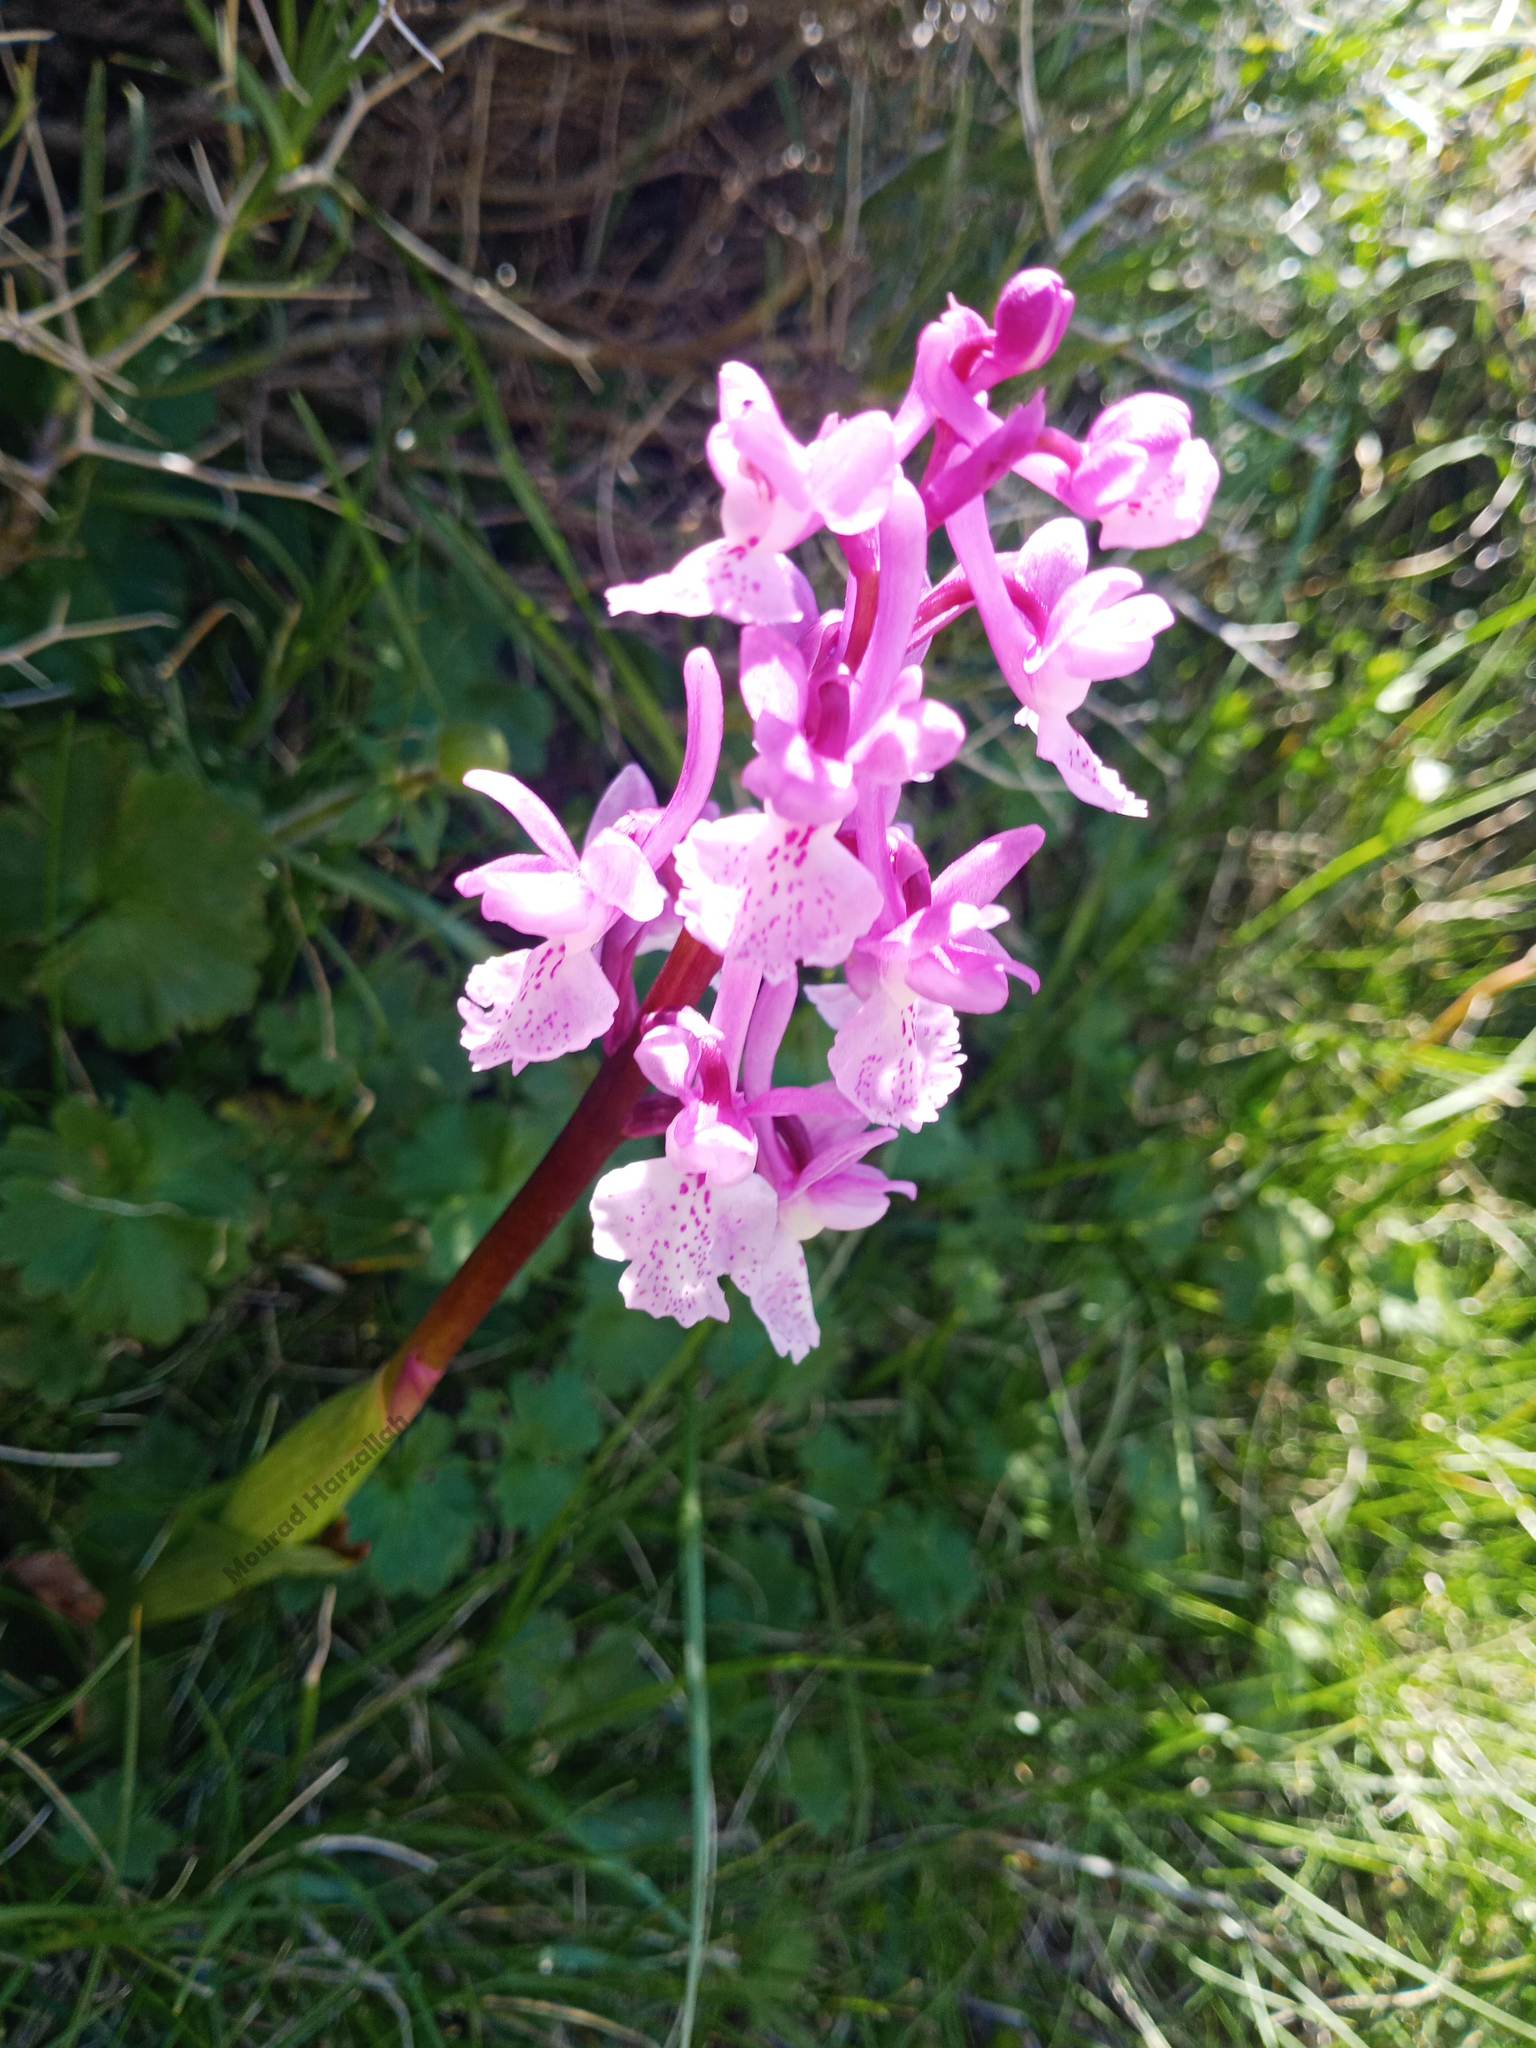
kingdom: Plantae
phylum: Tracheophyta
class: Liliopsida
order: Asparagales
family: Orchidaceae
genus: Orchis
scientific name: Orchis olbiensis
